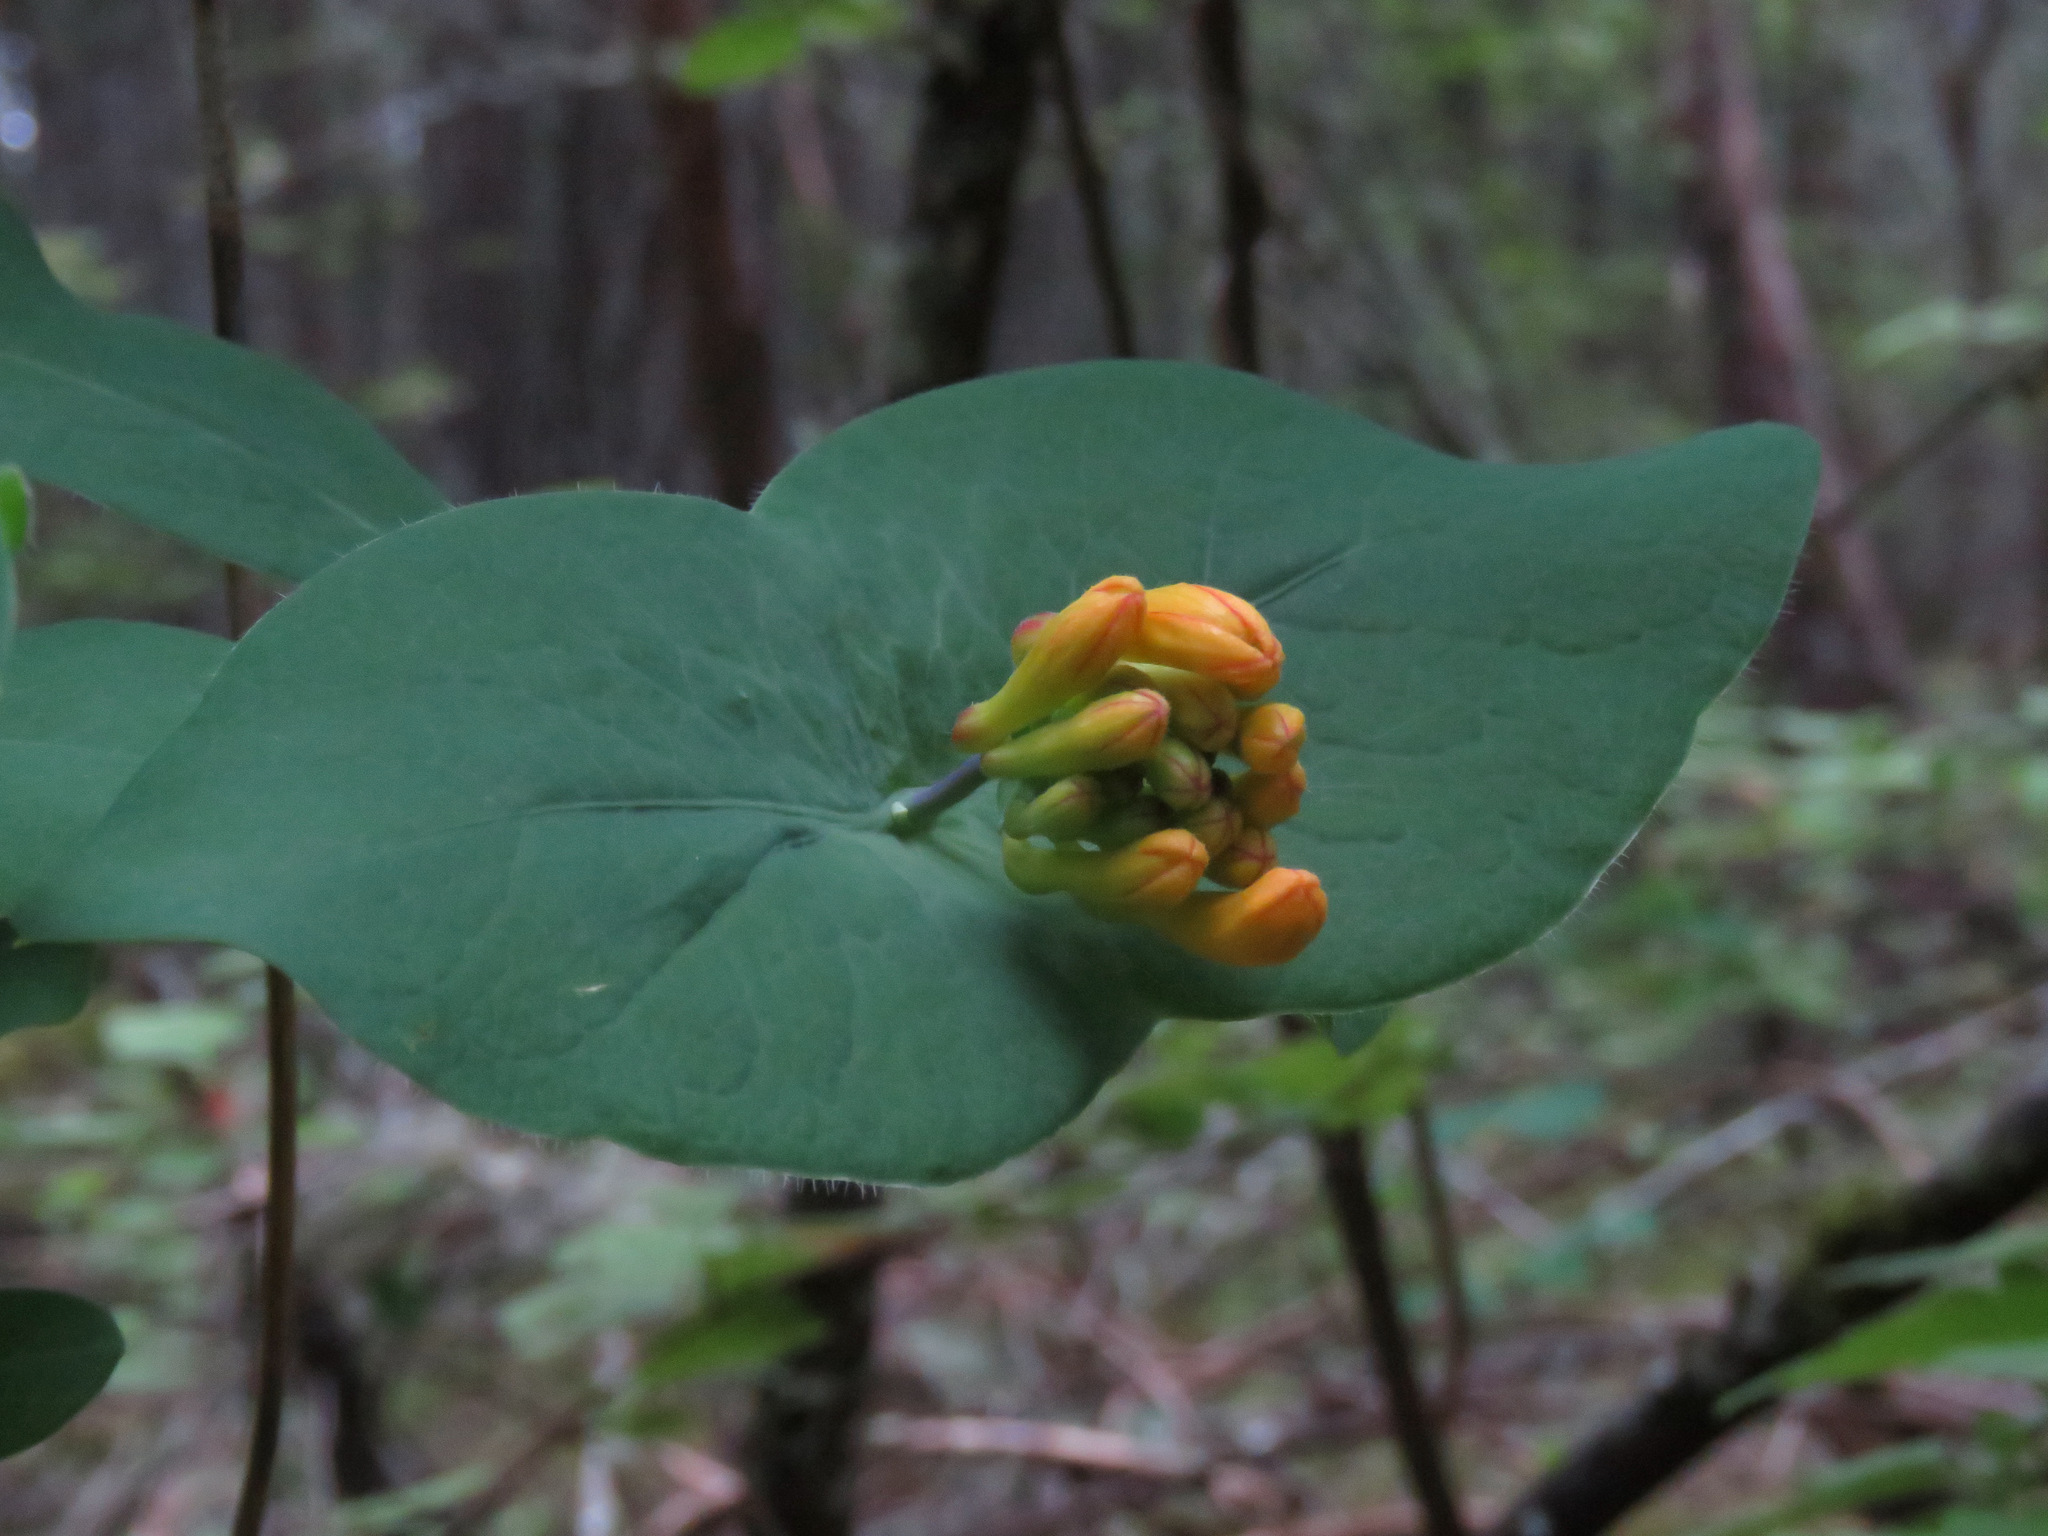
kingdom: Plantae
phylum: Tracheophyta
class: Magnoliopsida
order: Dipsacales
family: Caprifoliaceae
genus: Lonicera
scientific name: Lonicera ciliosa
